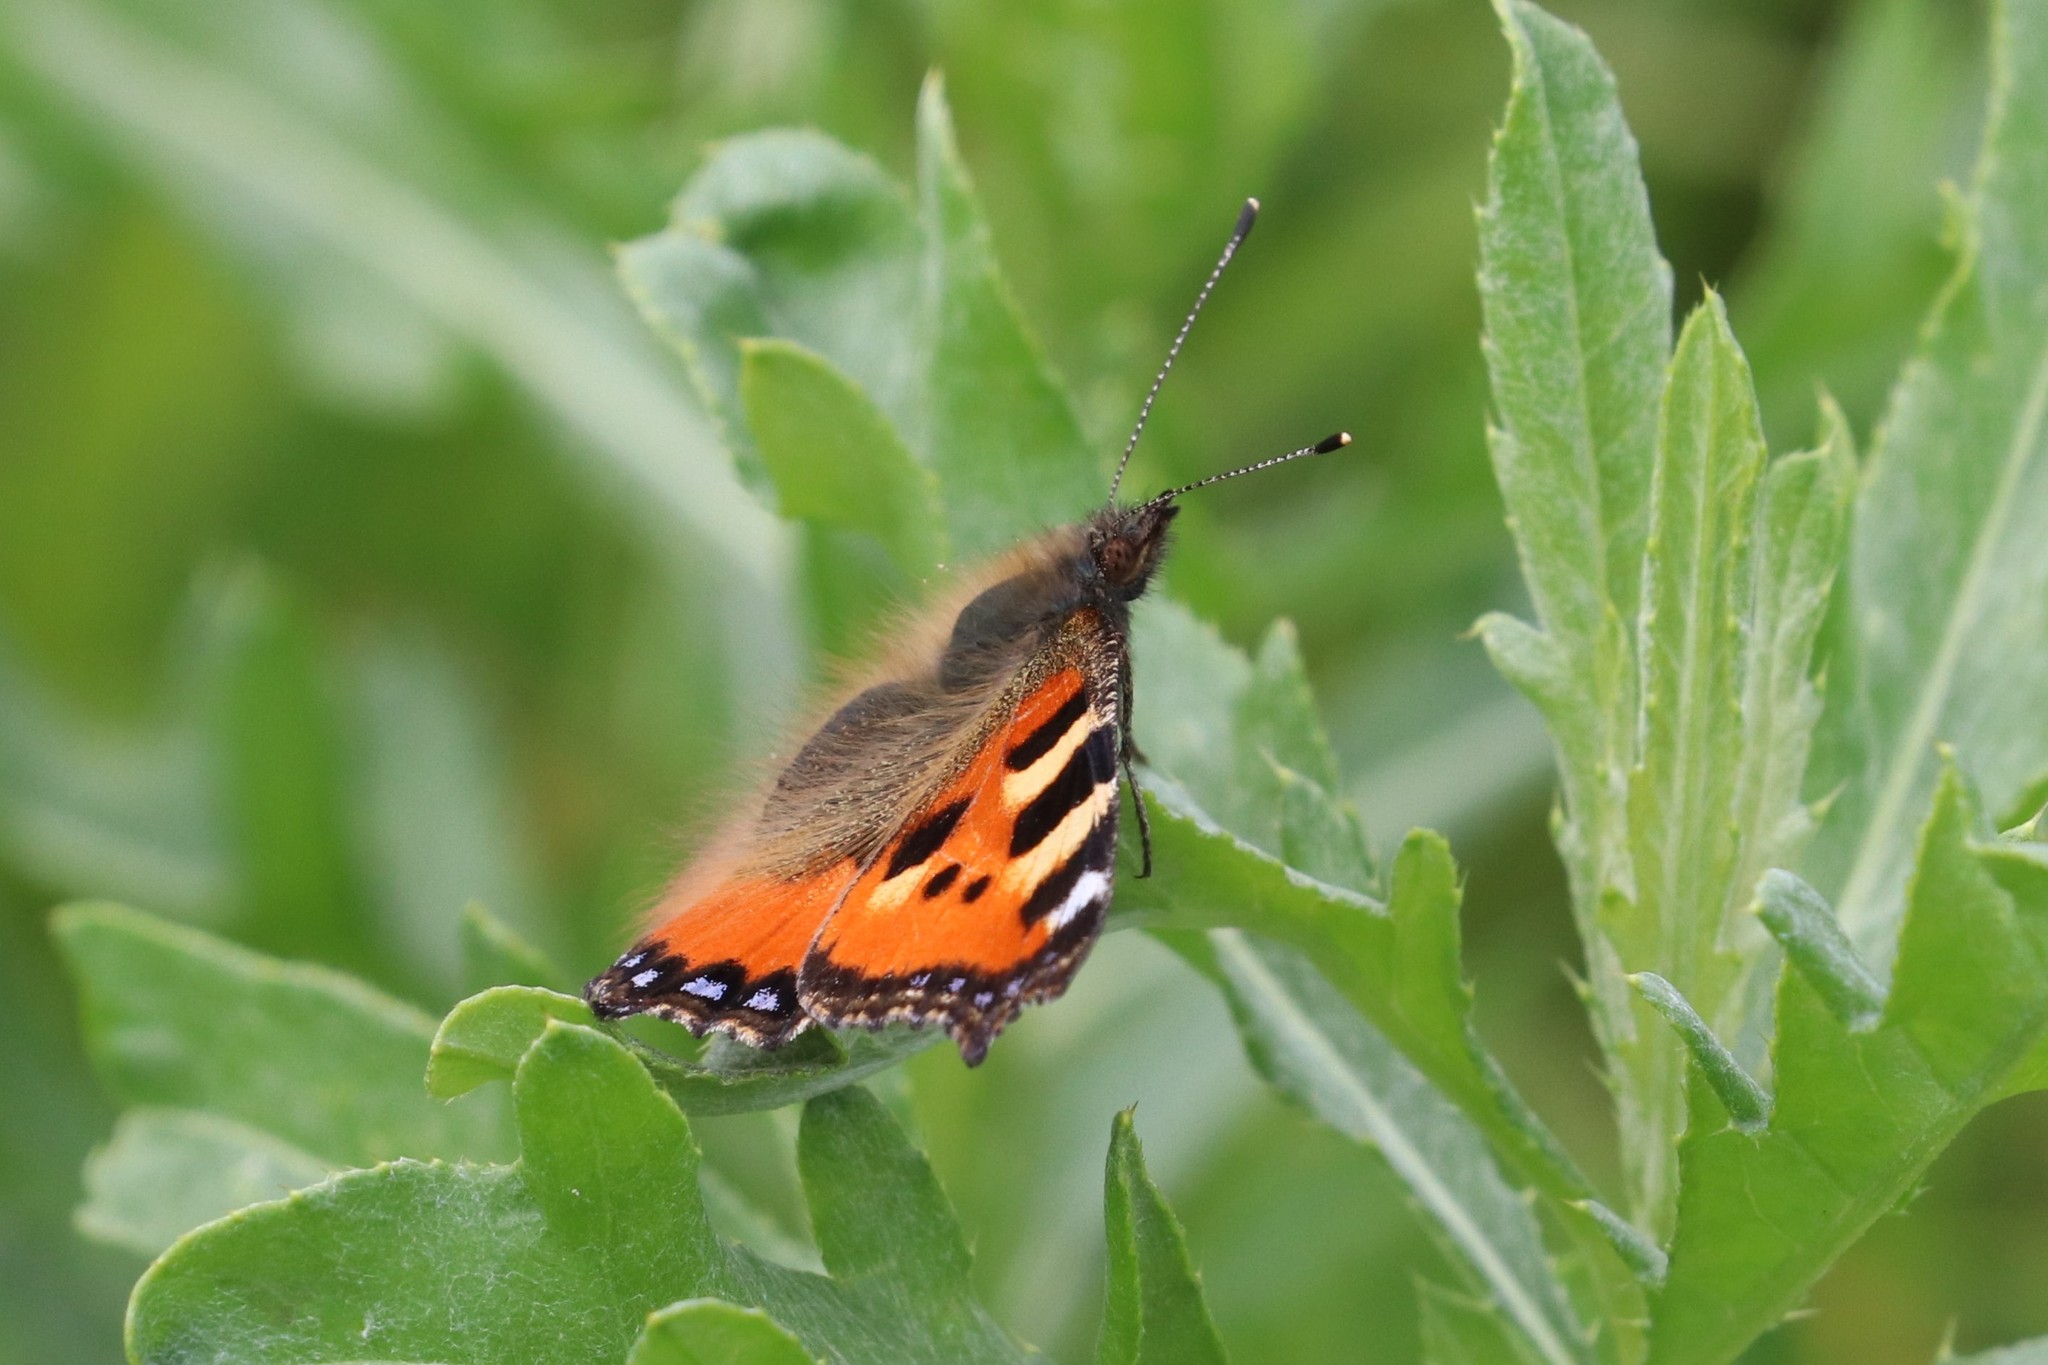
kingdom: Animalia
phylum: Arthropoda
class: Insecta
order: Lepidoptera
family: Nymphalidae
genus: Aglais
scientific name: Aglais urticae
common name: Small tortoiseshell
